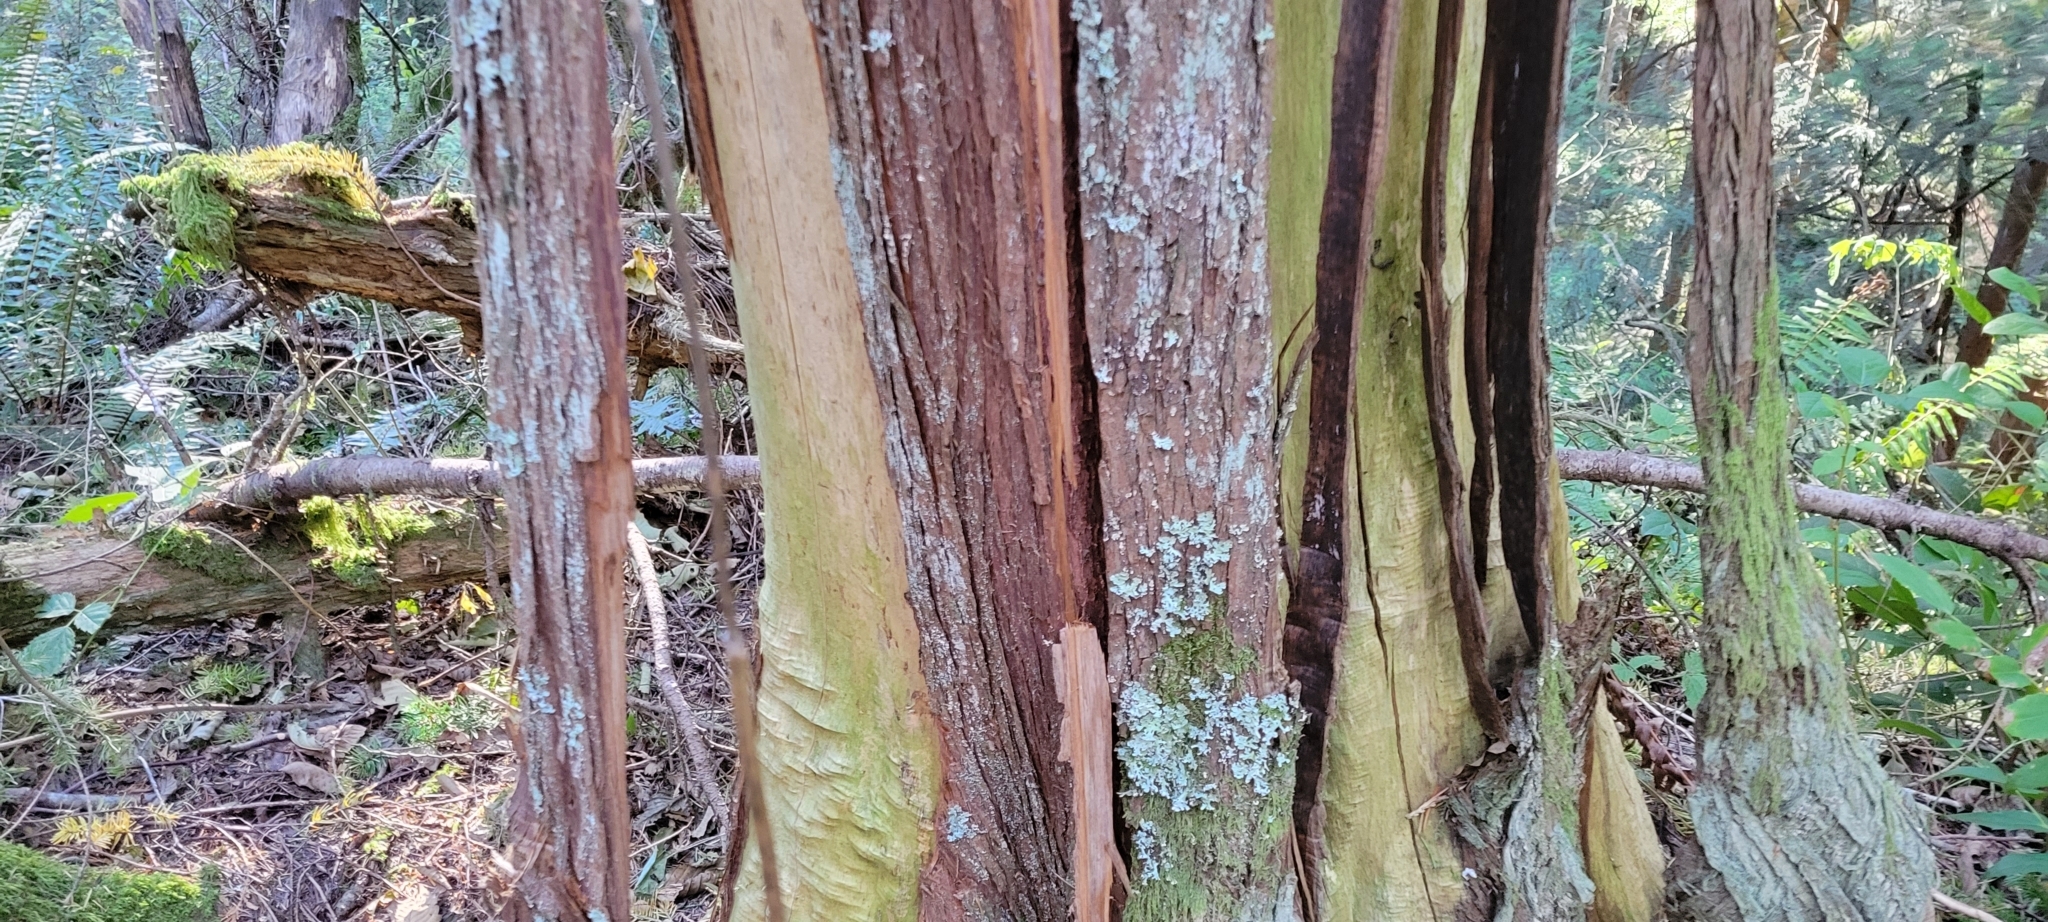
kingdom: Plantae
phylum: Tracheophyta
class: Pinopsida
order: Pinales
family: Cupressaceae
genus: Thuja
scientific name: Thuja plicata
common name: Western red-cedar
